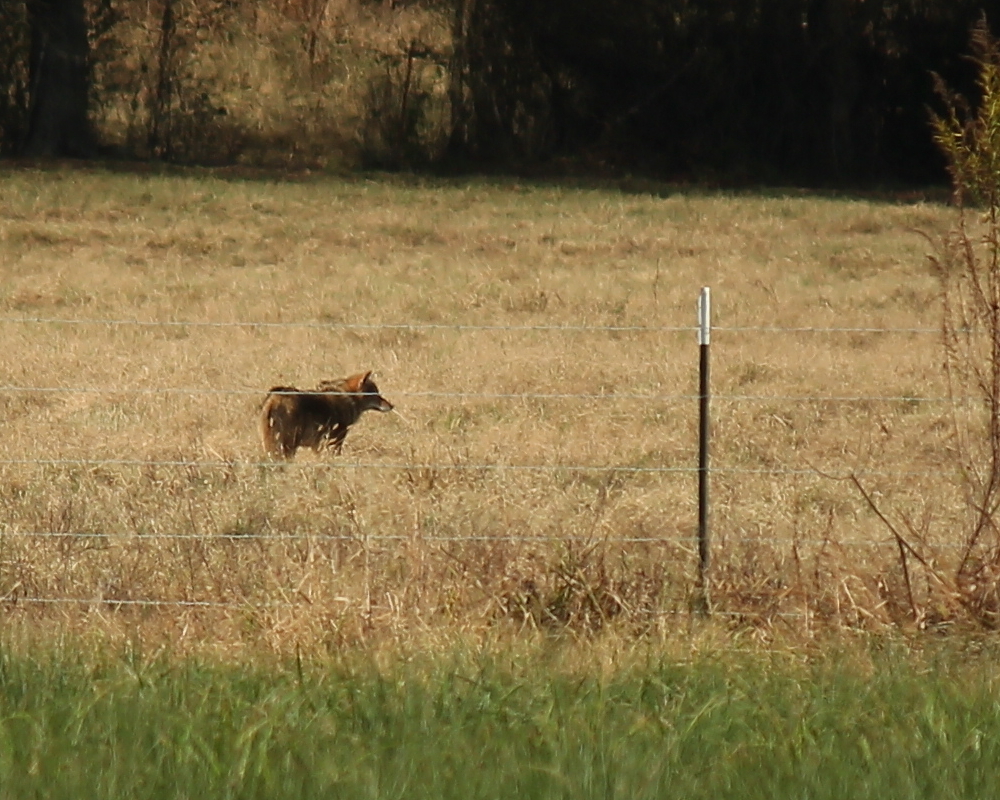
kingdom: Animalia
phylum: Chordata
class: Mammalia
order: Carnivora
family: Canidae
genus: Canis
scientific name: Canis latrans
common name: Coyote
